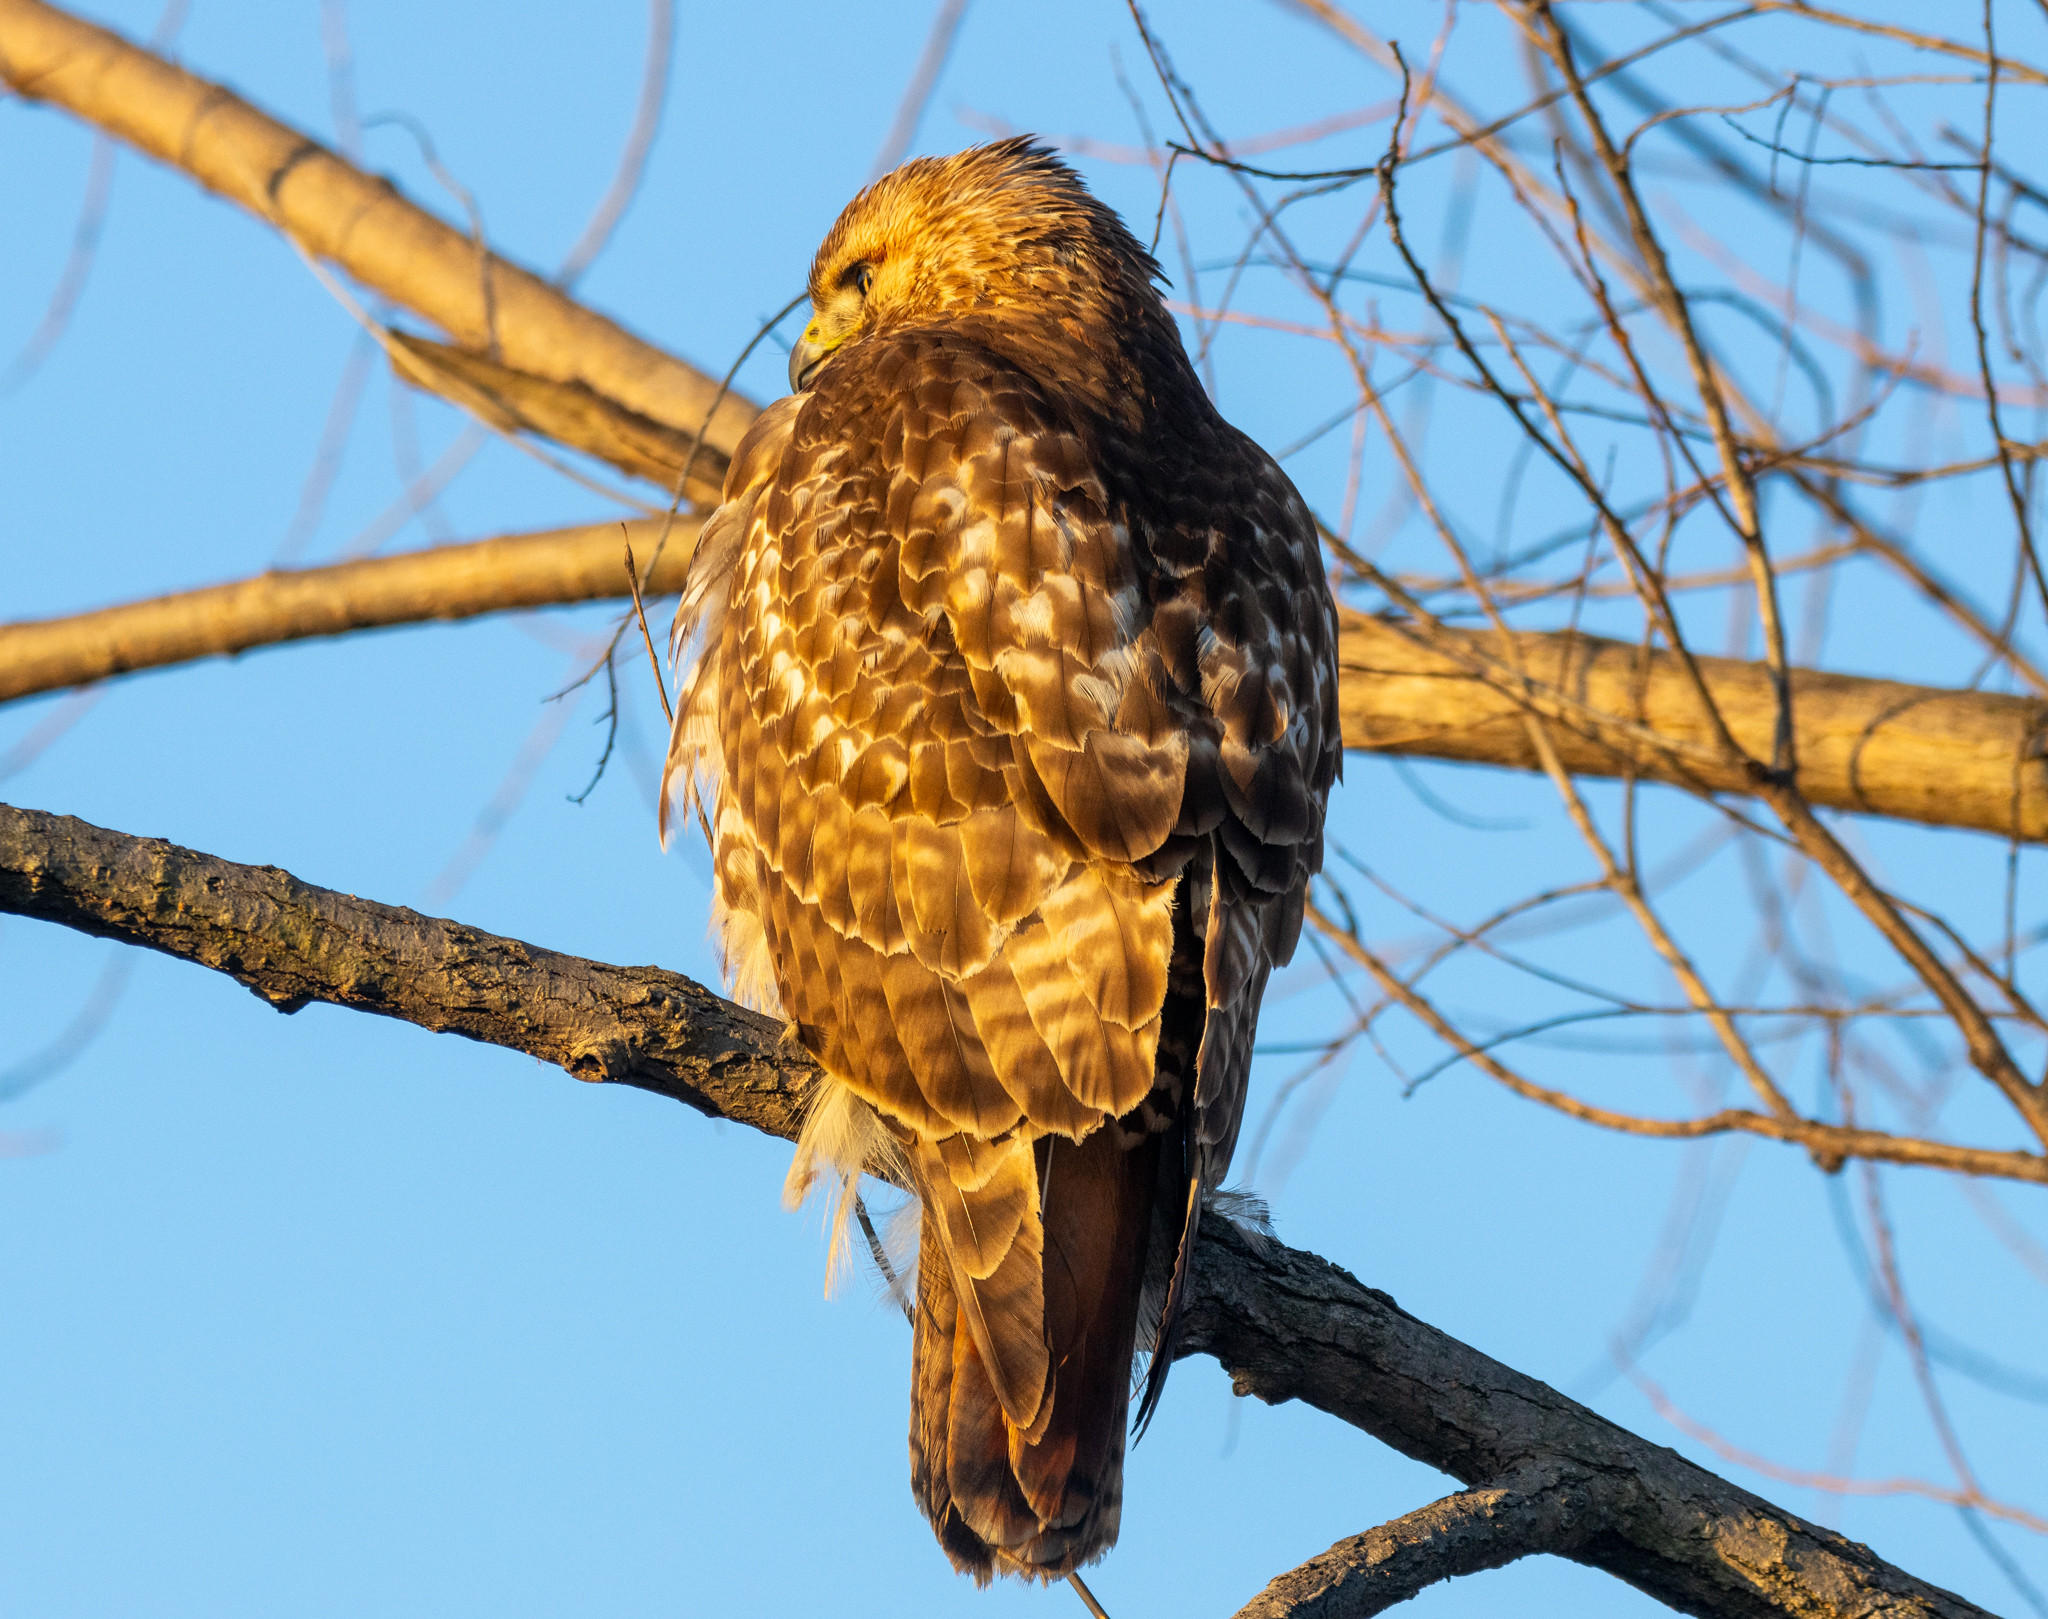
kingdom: Animalia
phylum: Chordata
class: Aves
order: Accipitriformes
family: Accipitridae
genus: Buteo
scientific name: Buteo jamaicensis
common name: Red-tailed hawk
